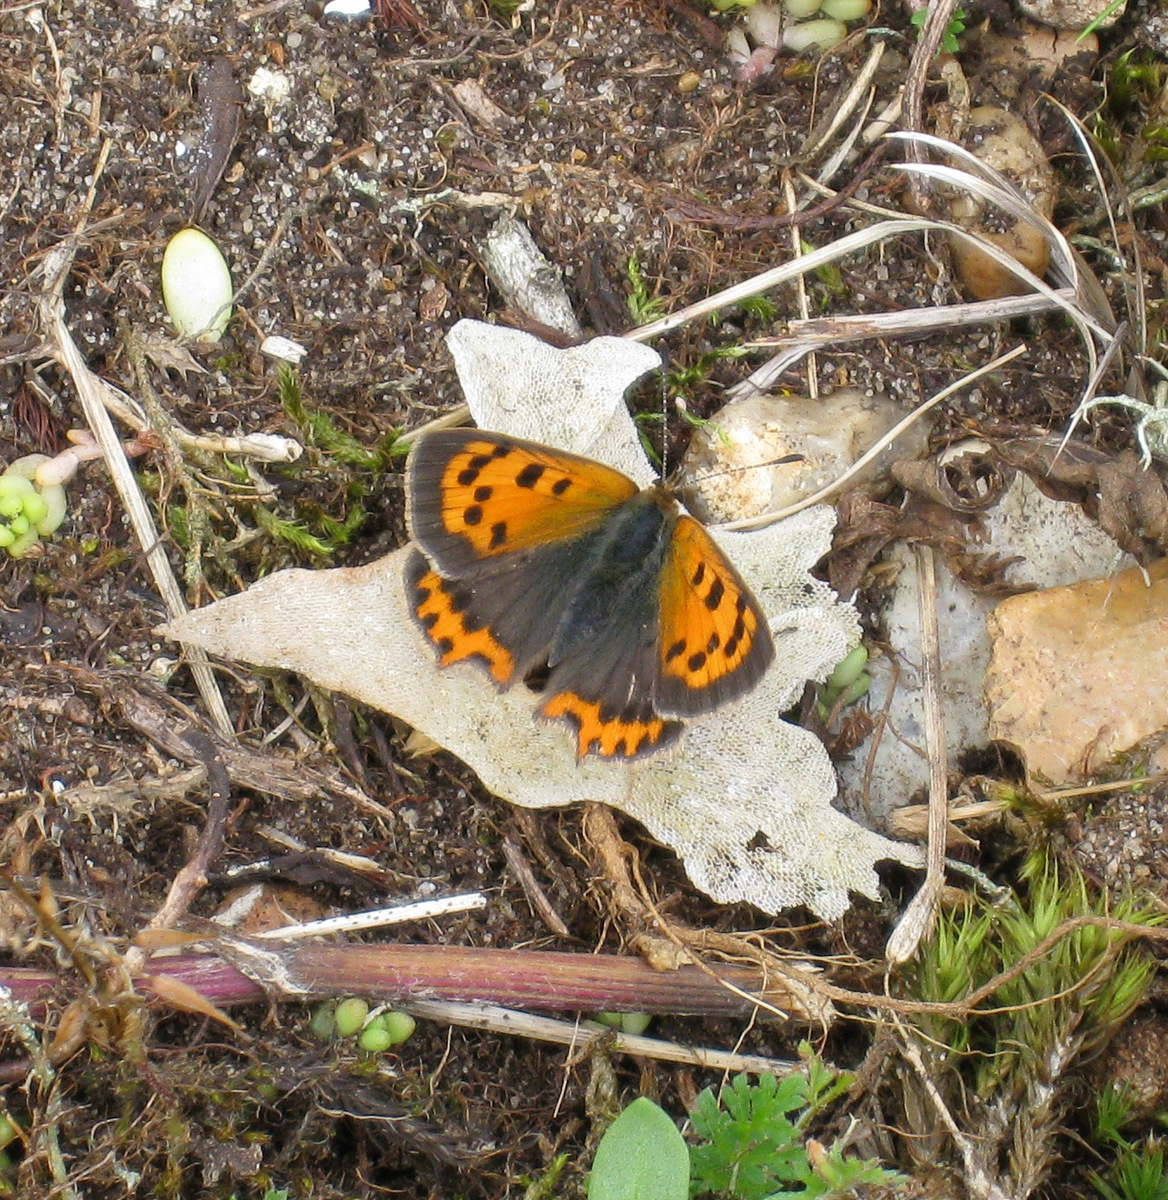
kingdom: Animalia
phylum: Arthropoda
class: Insecta
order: Lepidoptera
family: Lycaenidae
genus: Lycaena
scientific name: Lycaena phlaeas
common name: Small copper
